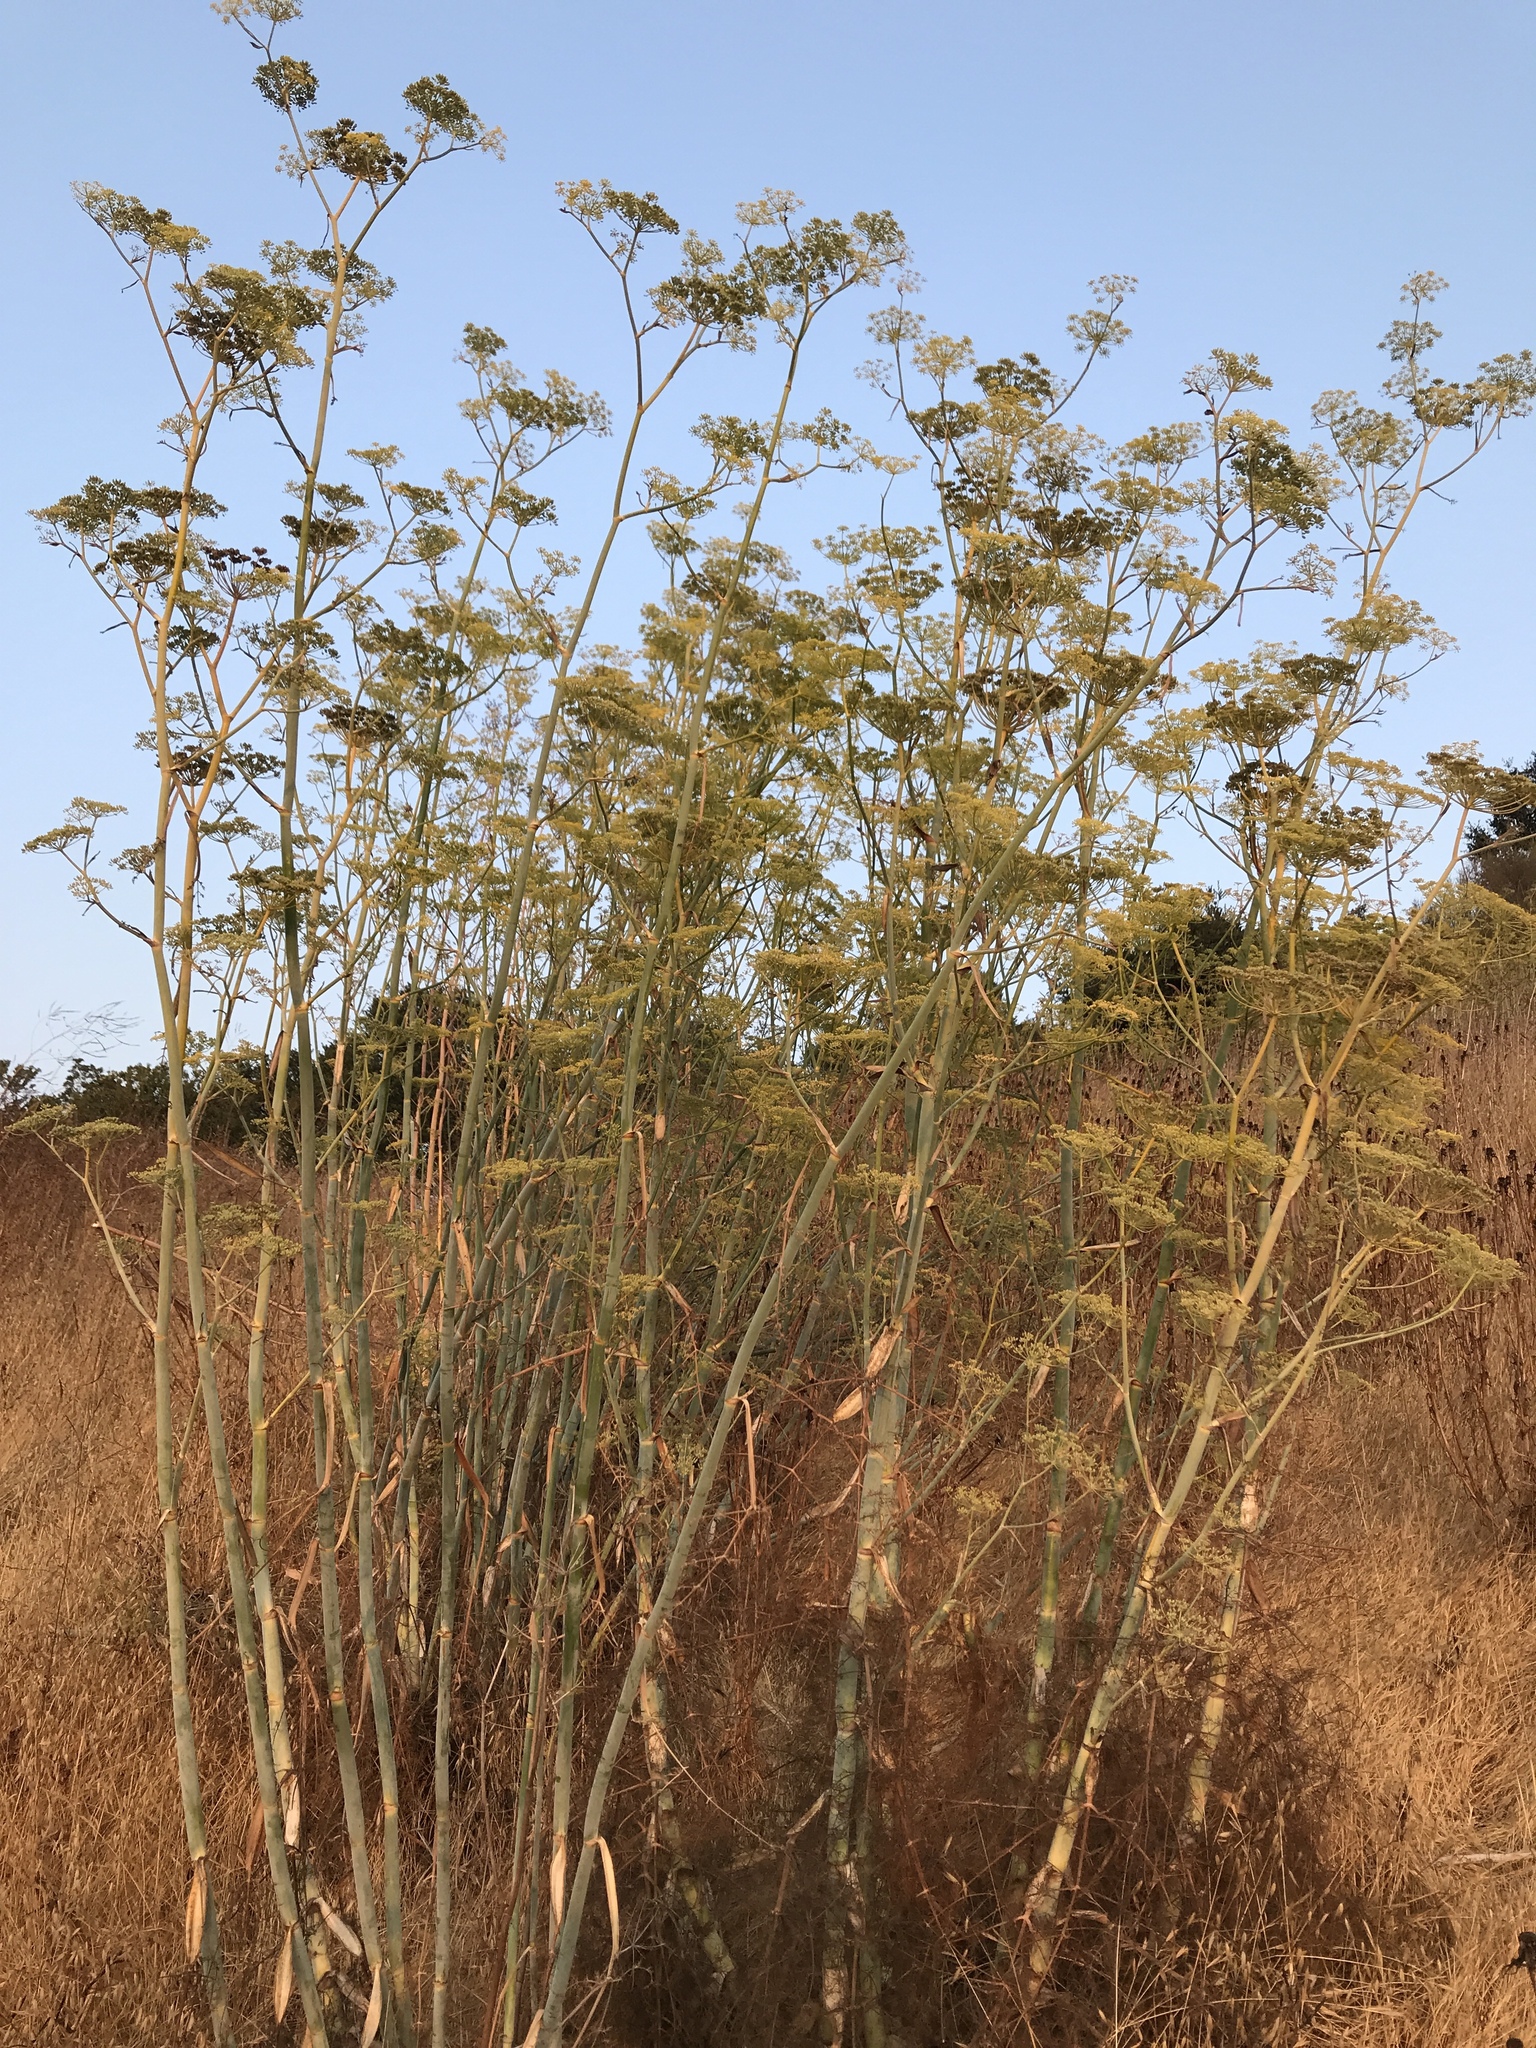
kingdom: Plantae
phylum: Tracheophyta
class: Magnoliopsida
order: Apiales
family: Apiaceae
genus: Foeniculum
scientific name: Foeniculum vulgare
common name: Fennel
